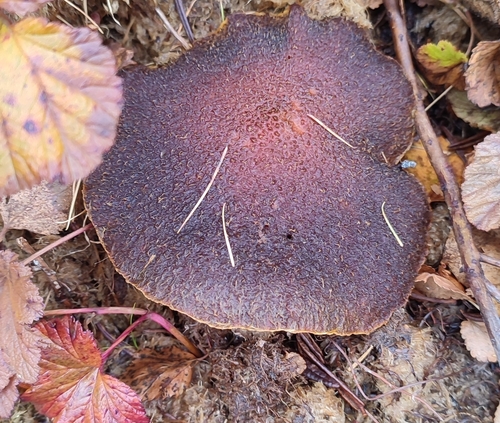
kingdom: Fungi
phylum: Basidiomycota
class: Agaricomycetes
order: Boletales
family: Suillaceae
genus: Suillus
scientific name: Suillus
